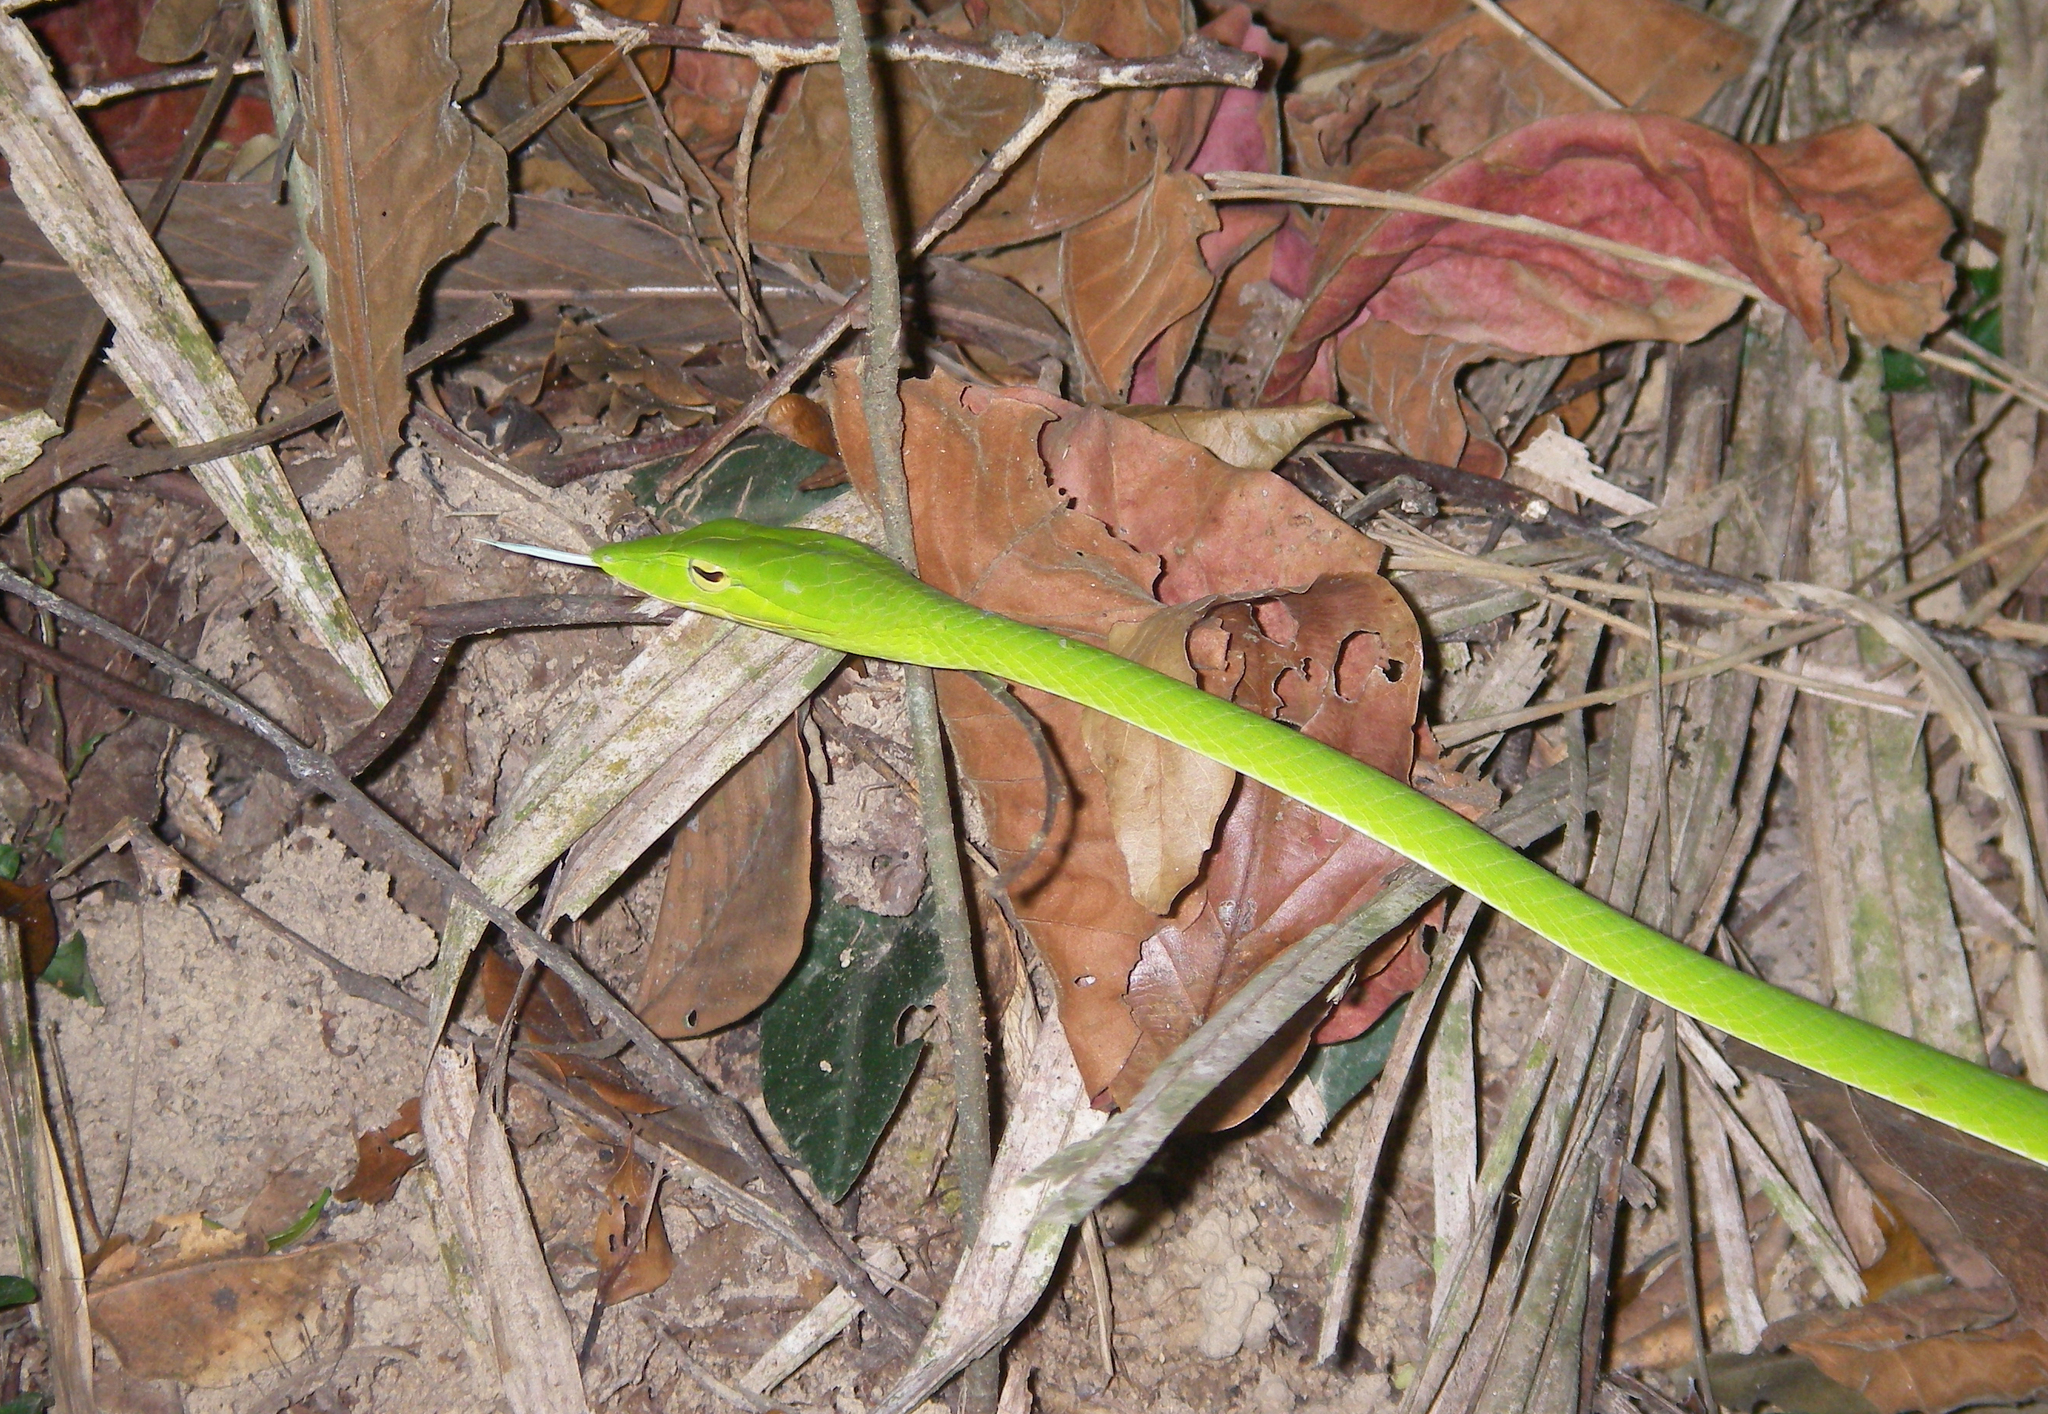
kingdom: Animalia
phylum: Chordata
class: Squamata
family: Colubridae
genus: Ahaetulla
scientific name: Ahaetulla prasina
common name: Oriental whip snake
